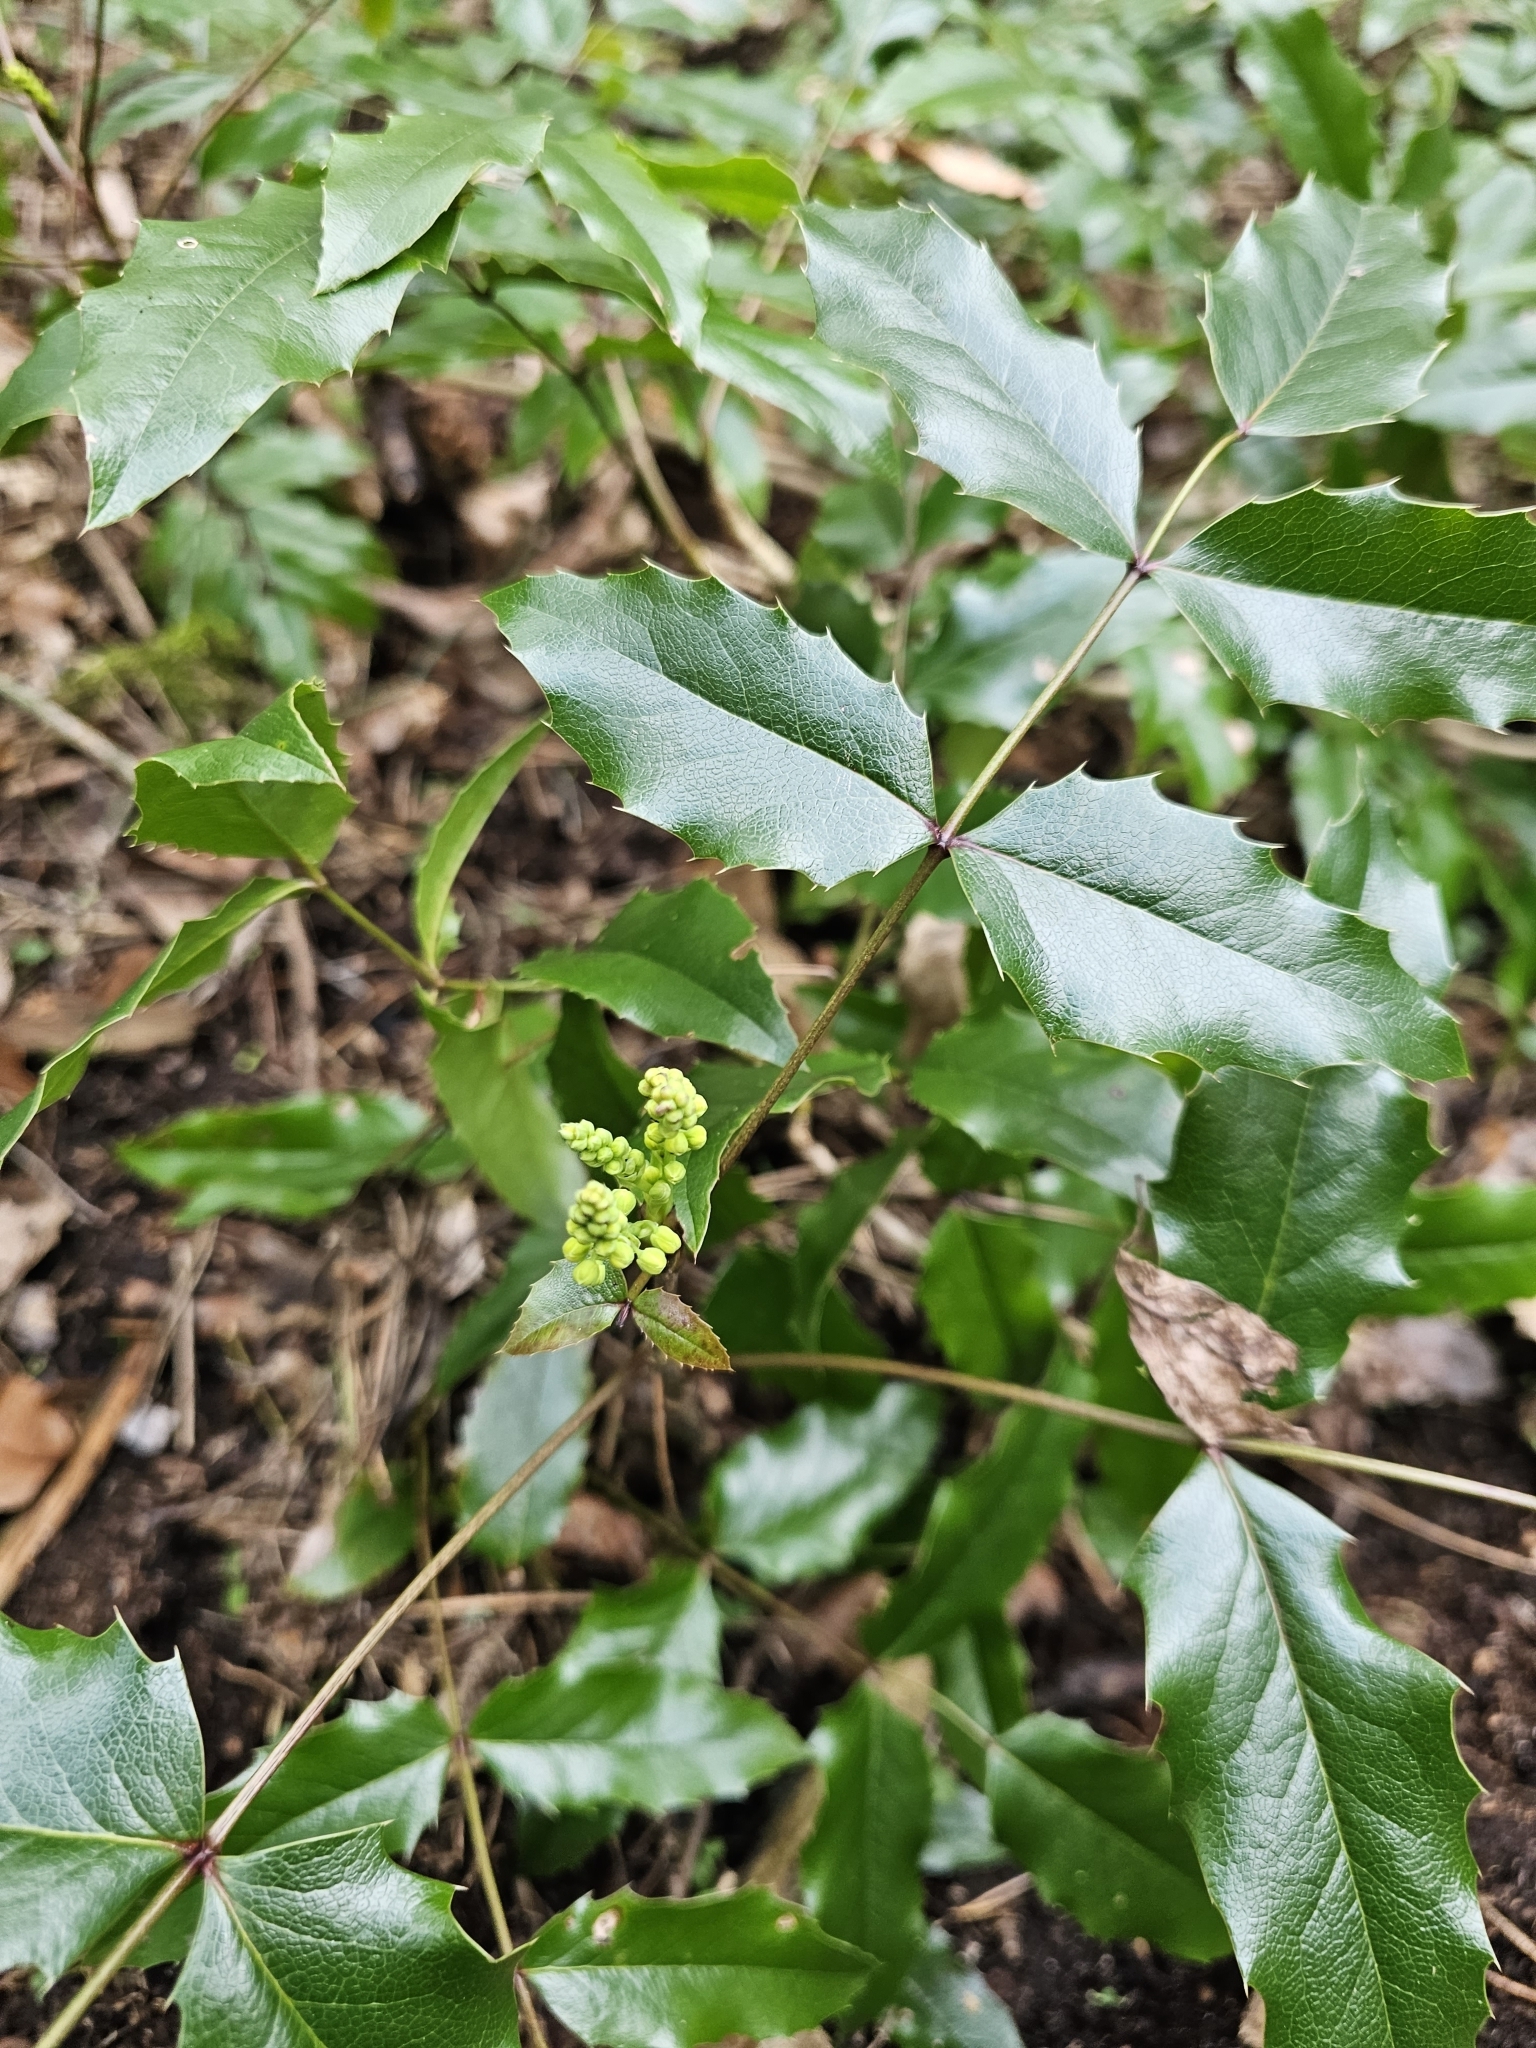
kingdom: Plantae
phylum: Tracheophyta
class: Magnoliopsida
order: Ranunculales
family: Berberidaceae
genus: Mahonia
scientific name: Mahonia aquifolium
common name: Oregon-grape
